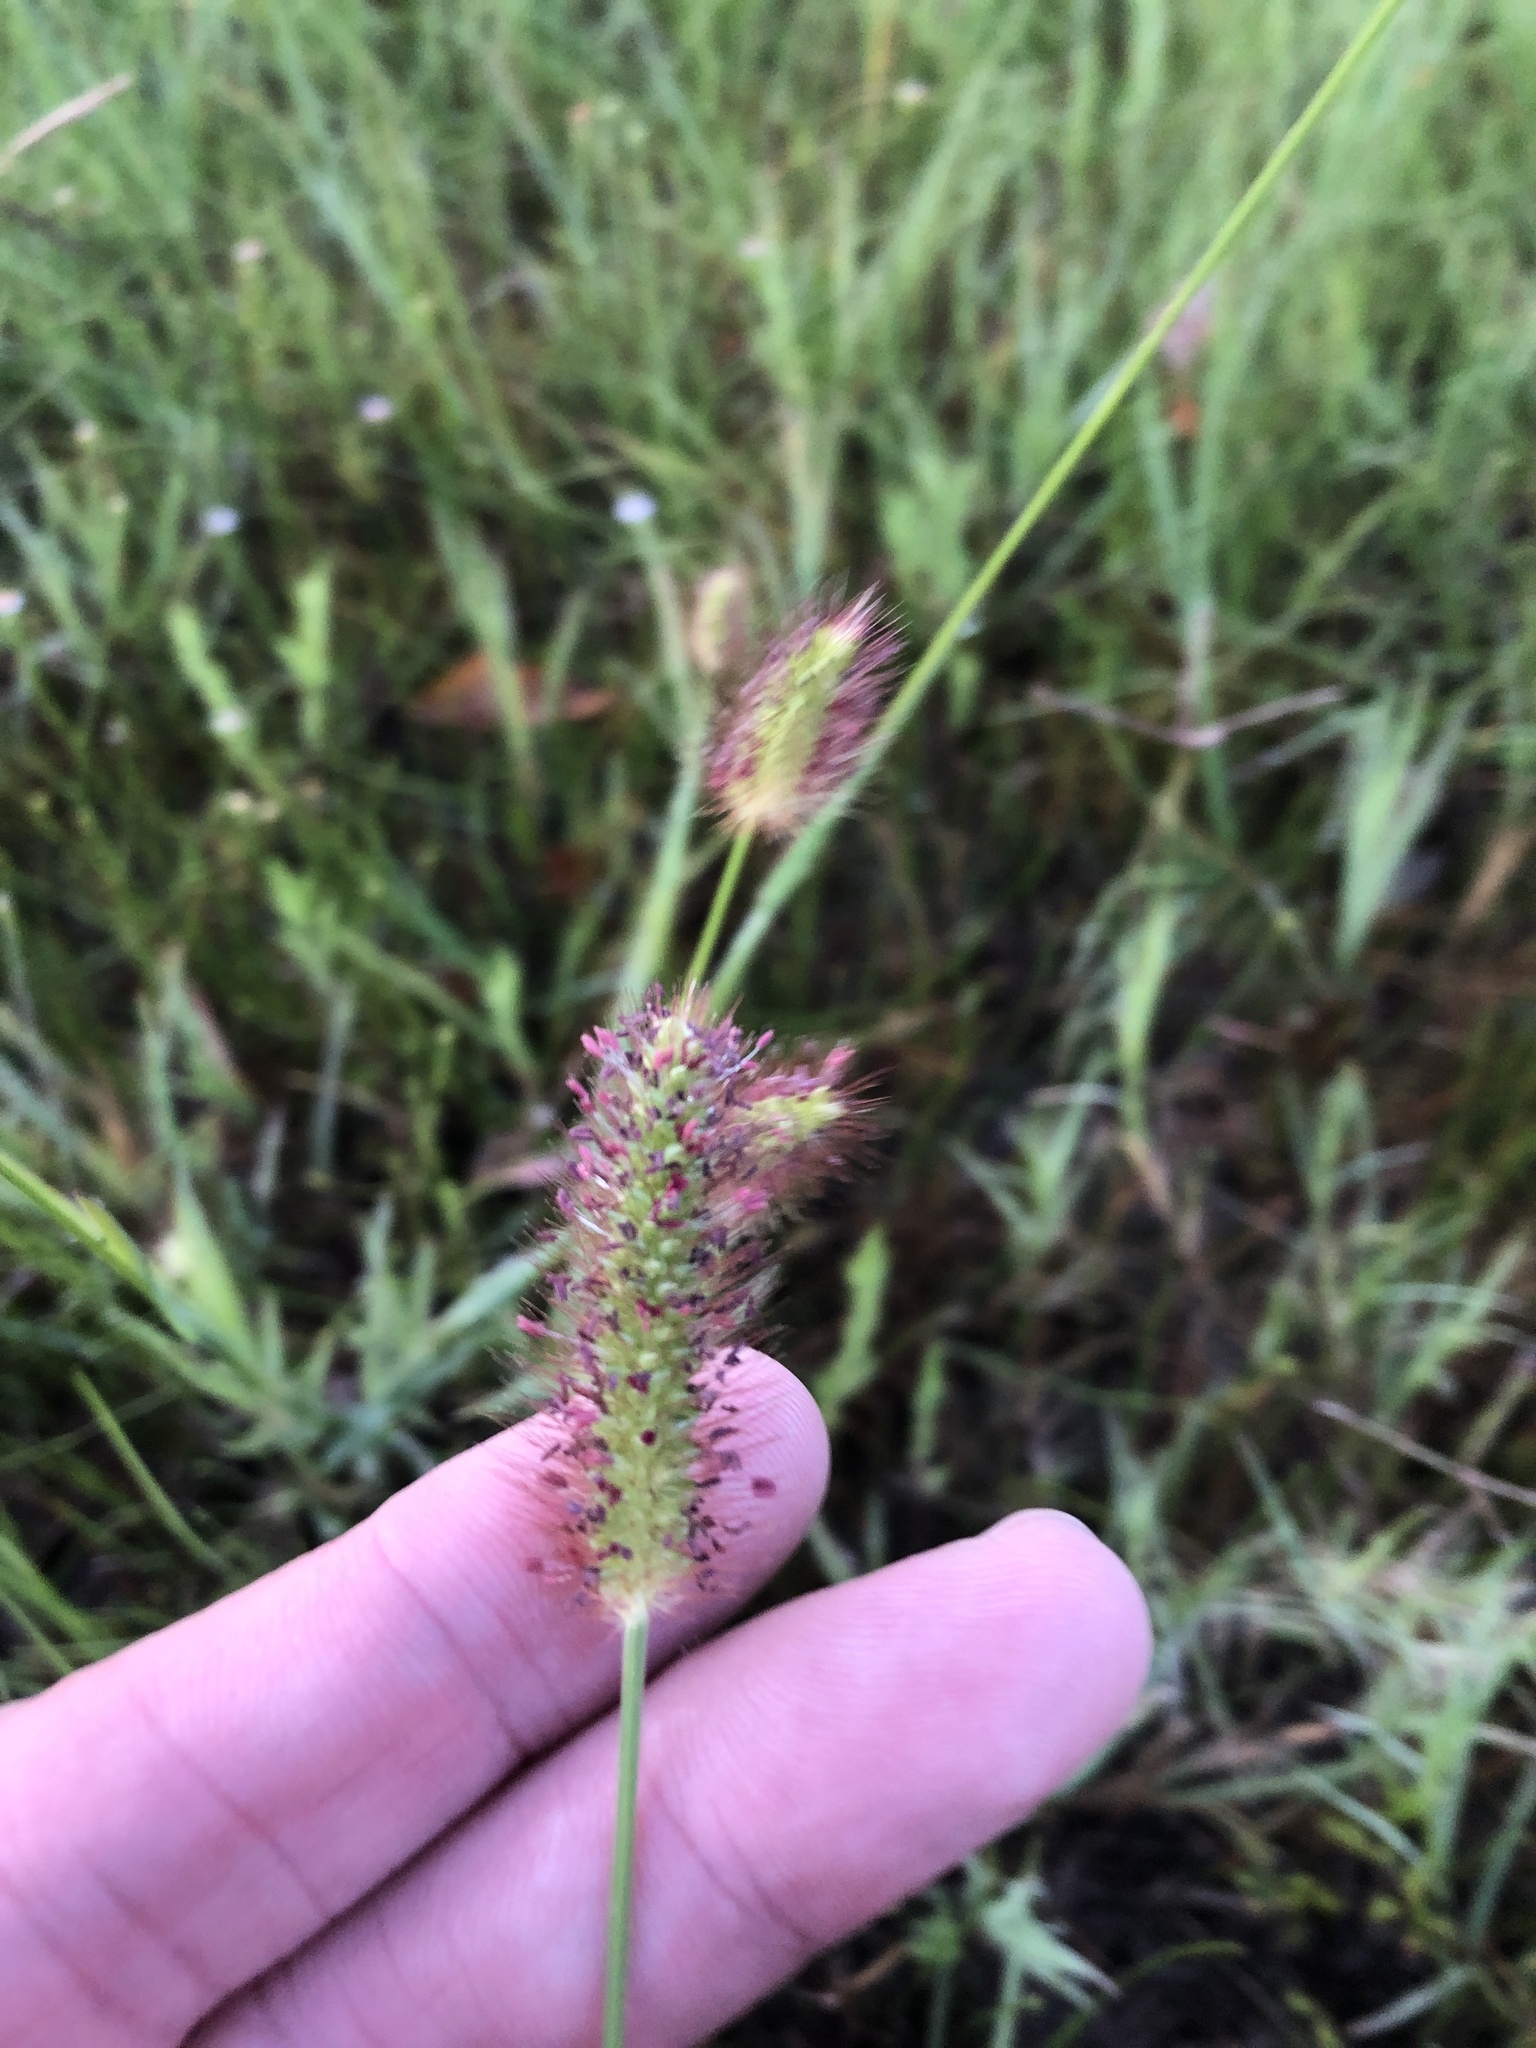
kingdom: Plantae
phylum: Tracheophyta
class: Liliopsida
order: Poales
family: Poaceae
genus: Setaria
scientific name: Setaria parviflora
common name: Knotroot bristle-grass
